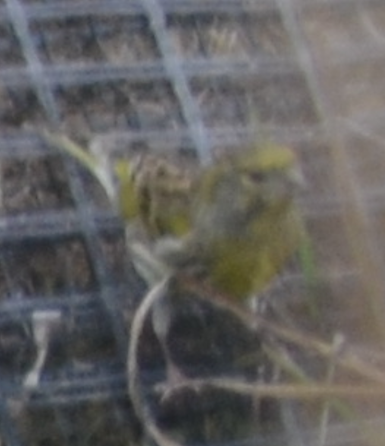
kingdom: Animalia
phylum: Chordata
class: Aves
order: Passeriformes
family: Fringillidae
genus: Serinus
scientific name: Serinus serinus
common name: European serin
